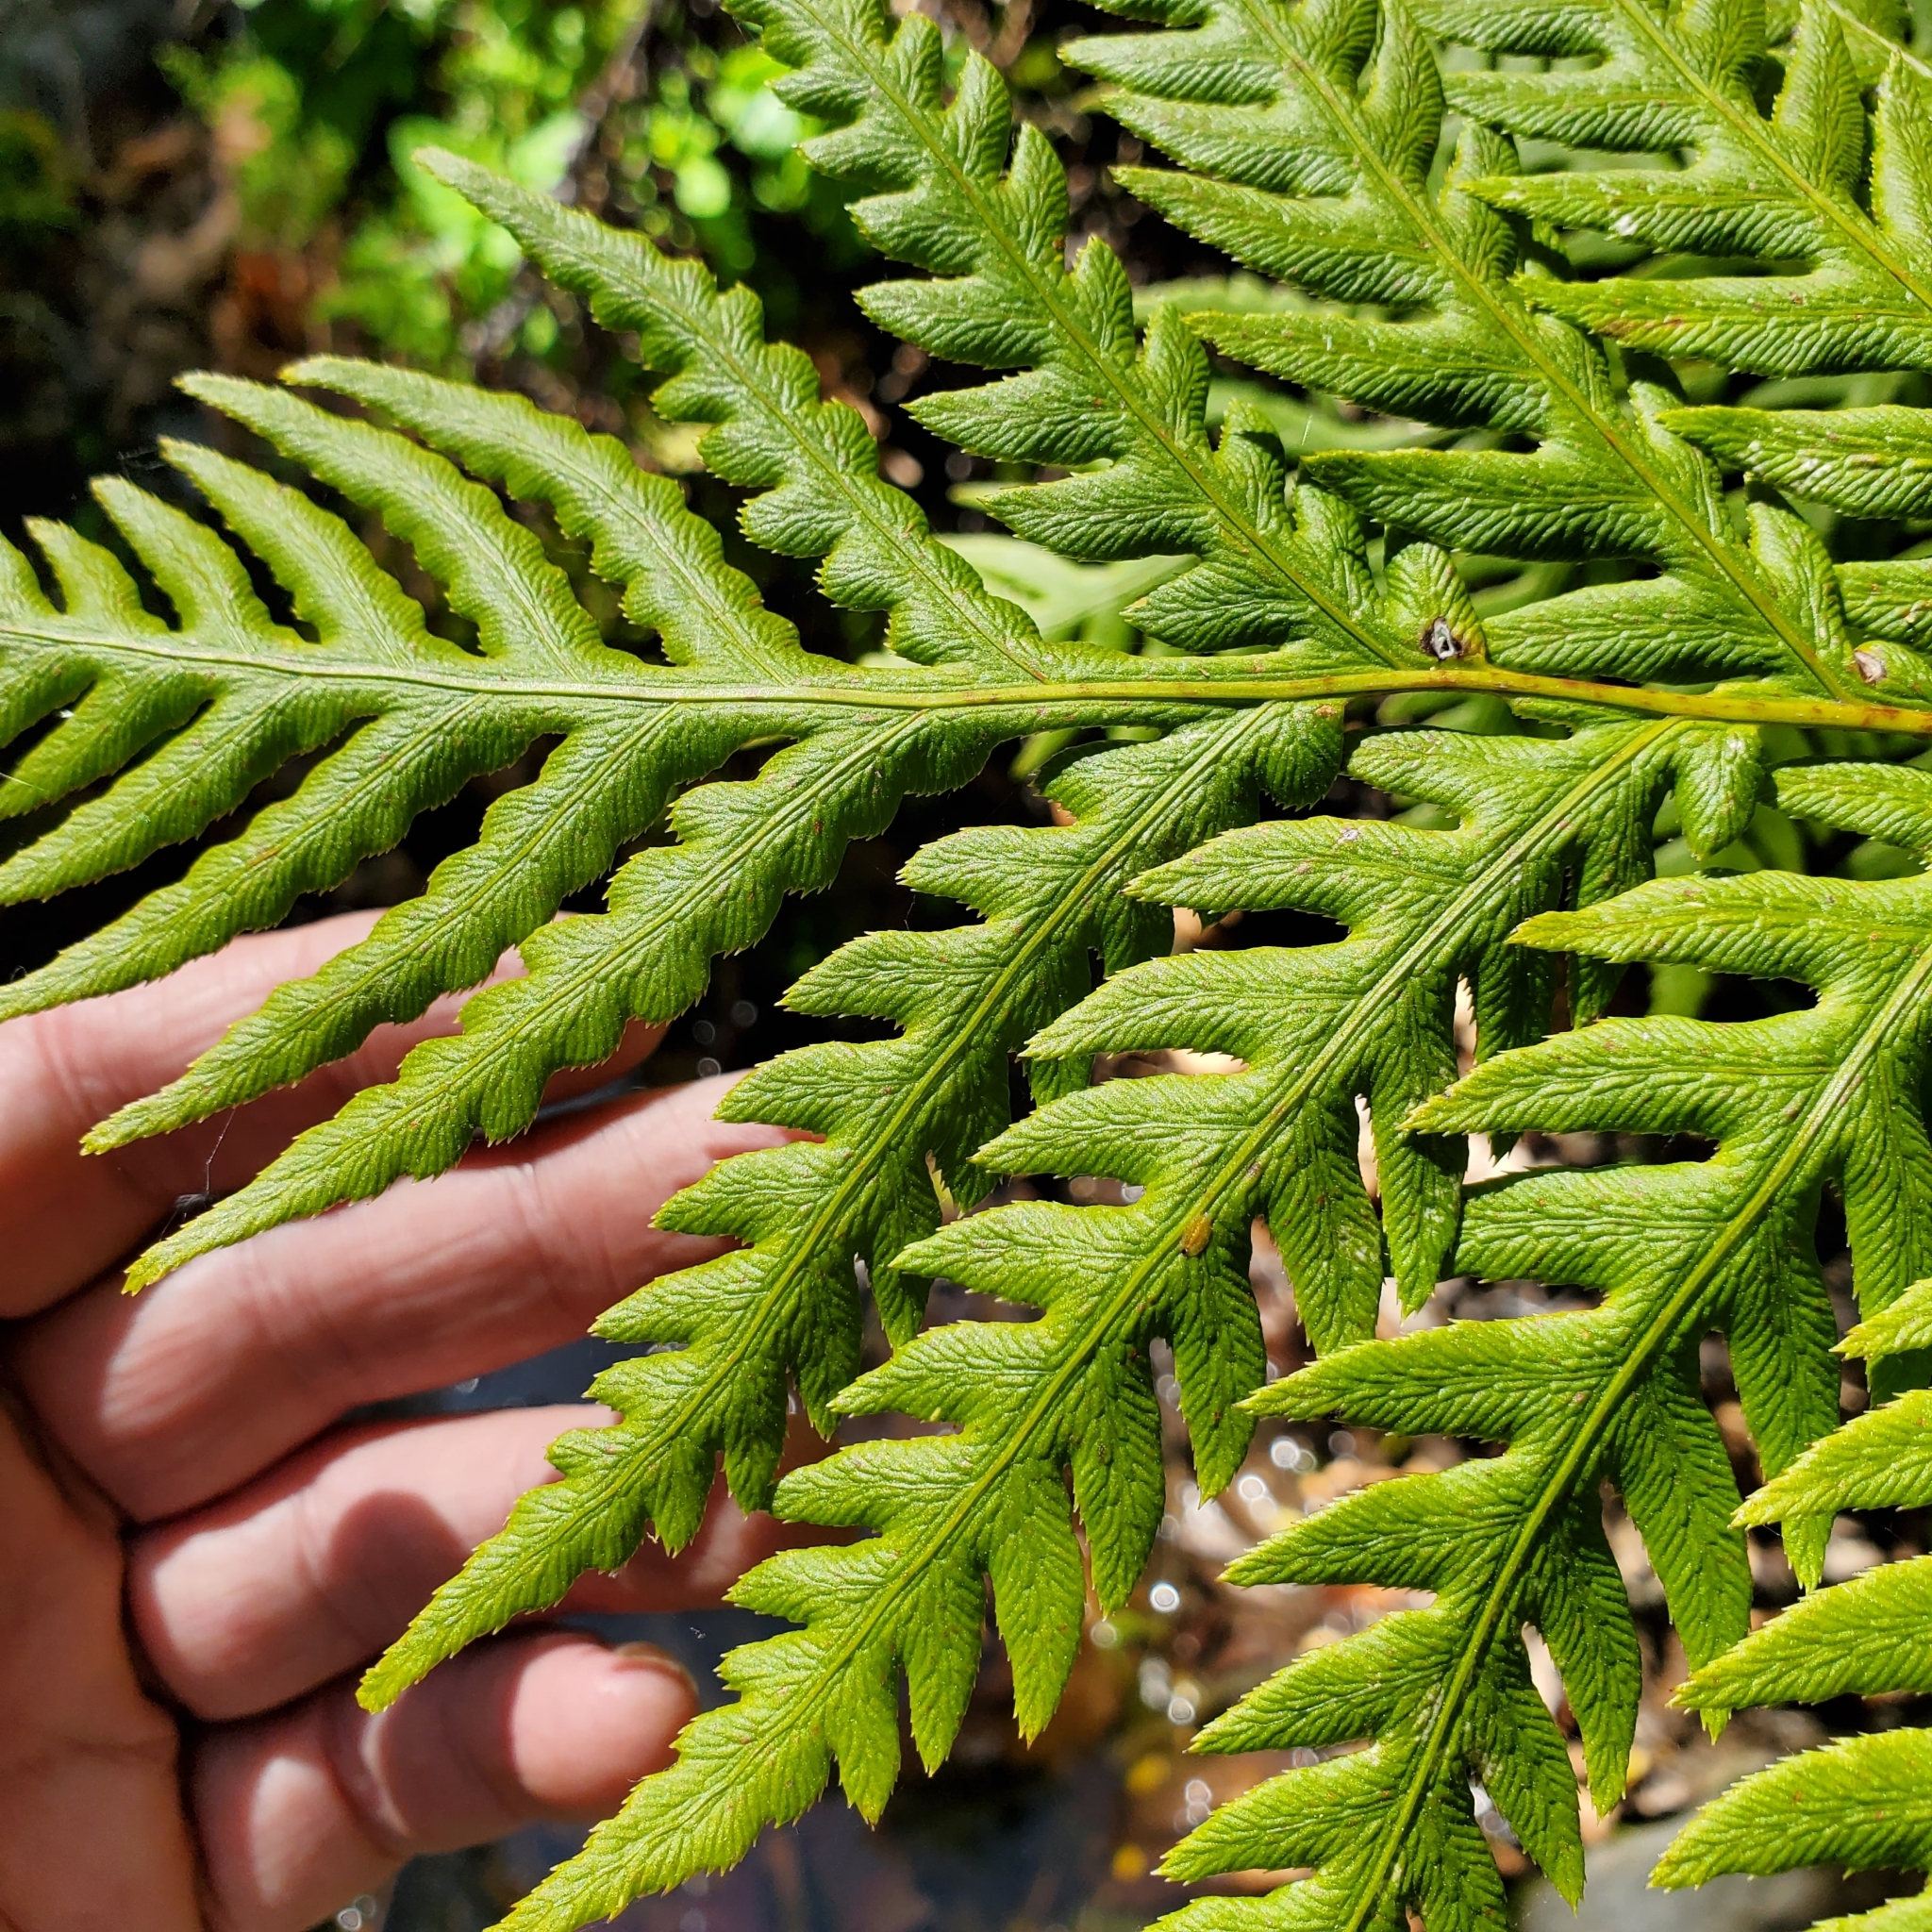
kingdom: Plantae
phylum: Tracheophyta
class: Polypodiopsida
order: Polypodiales
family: Blechnaceae
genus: Woodwardia
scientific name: Woodwardia fimbriata
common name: Giant chain fern
